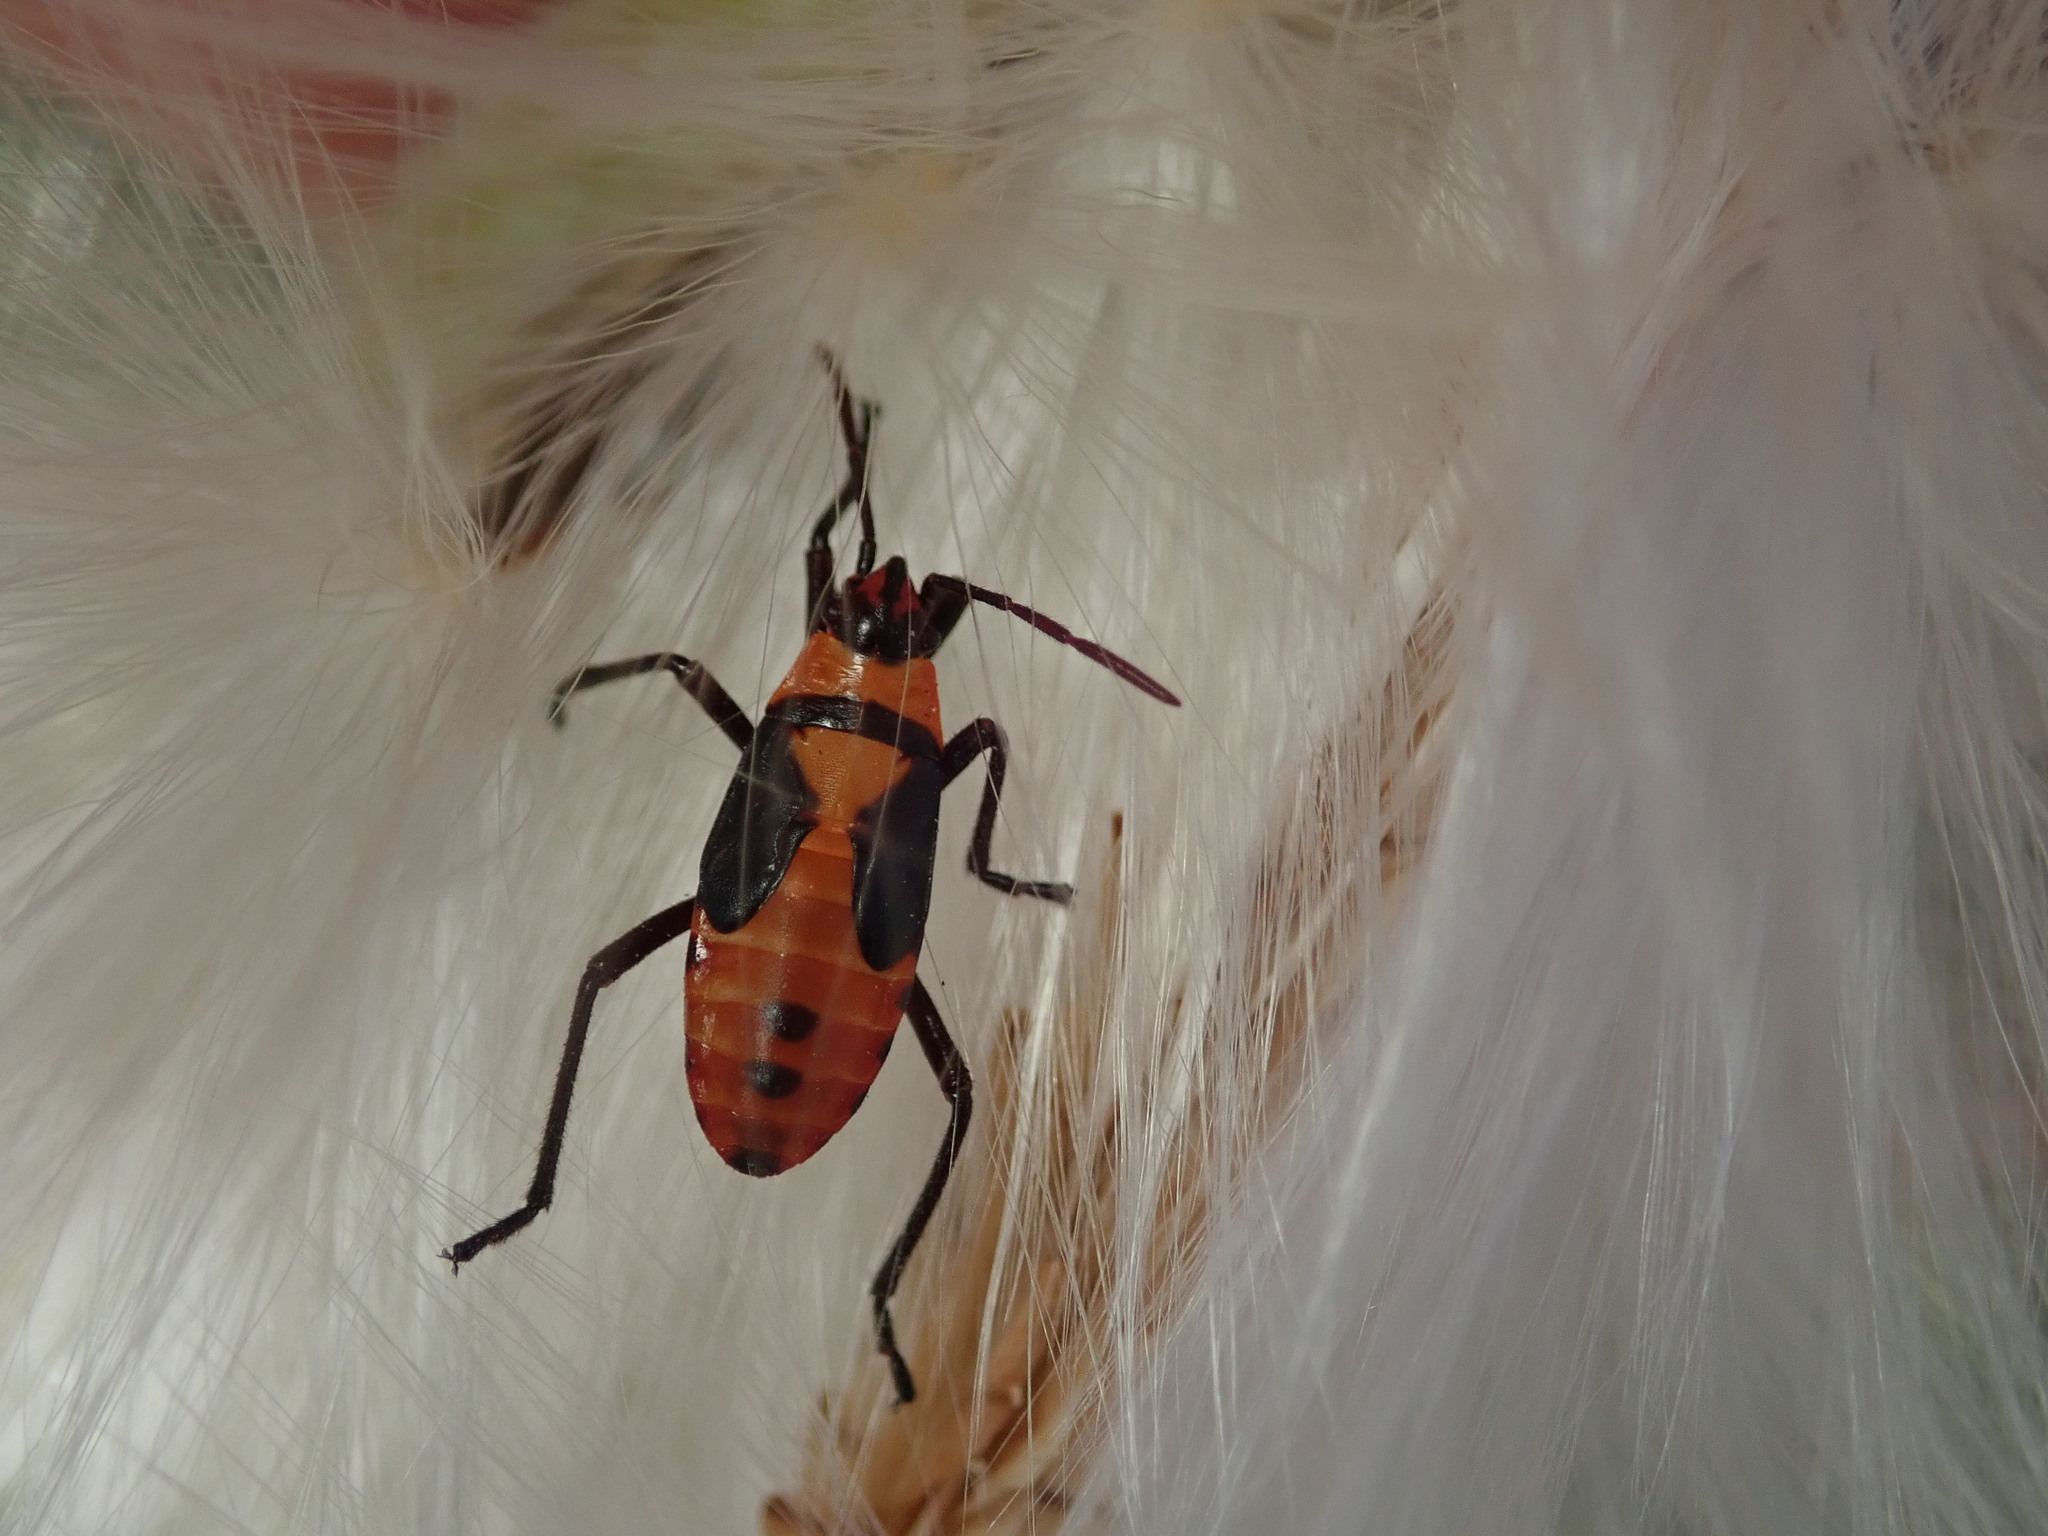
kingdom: Animalia
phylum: Arthropoda
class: Insecta
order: Hemiptera
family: Lygaeidae
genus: Oncopeltus
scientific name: Oncopeltus fasciatus
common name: Large milkweed bug
